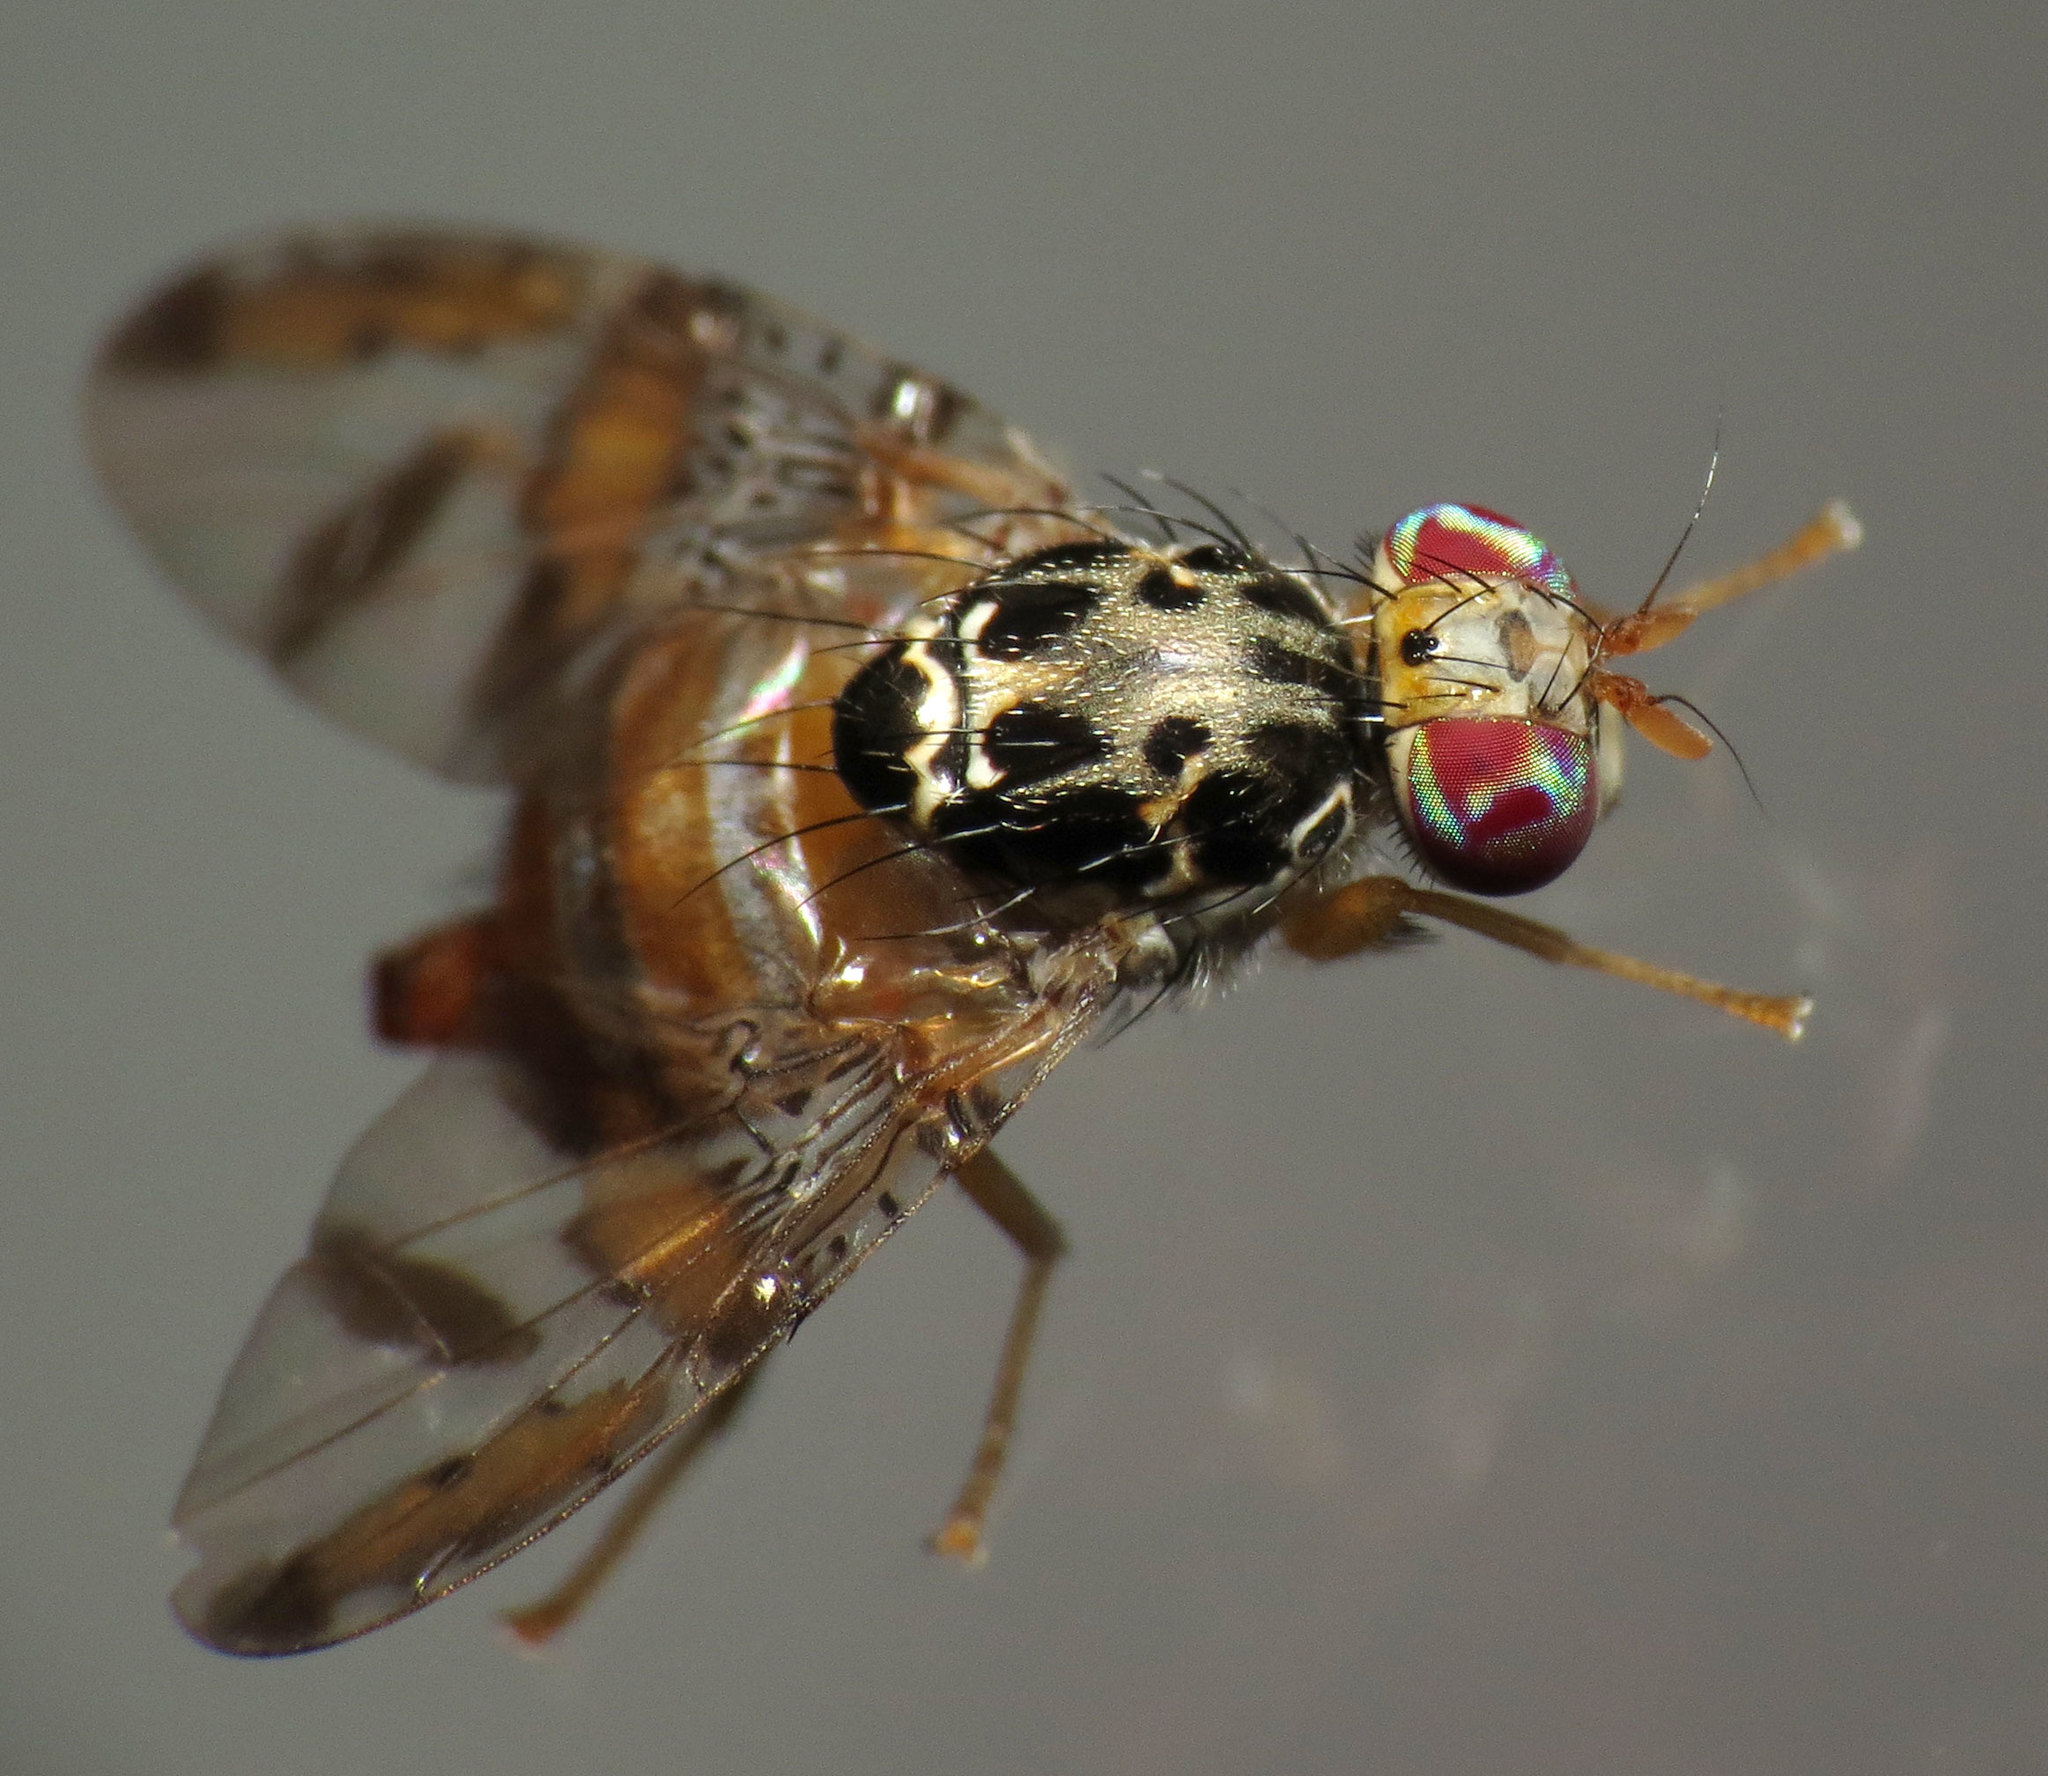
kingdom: Animalia
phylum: Arthropoda
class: Insecta
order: Diptera
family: Tephritidae
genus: Ceratitis
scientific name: Ceratitis capitata
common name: Mediterranean fruit fly
